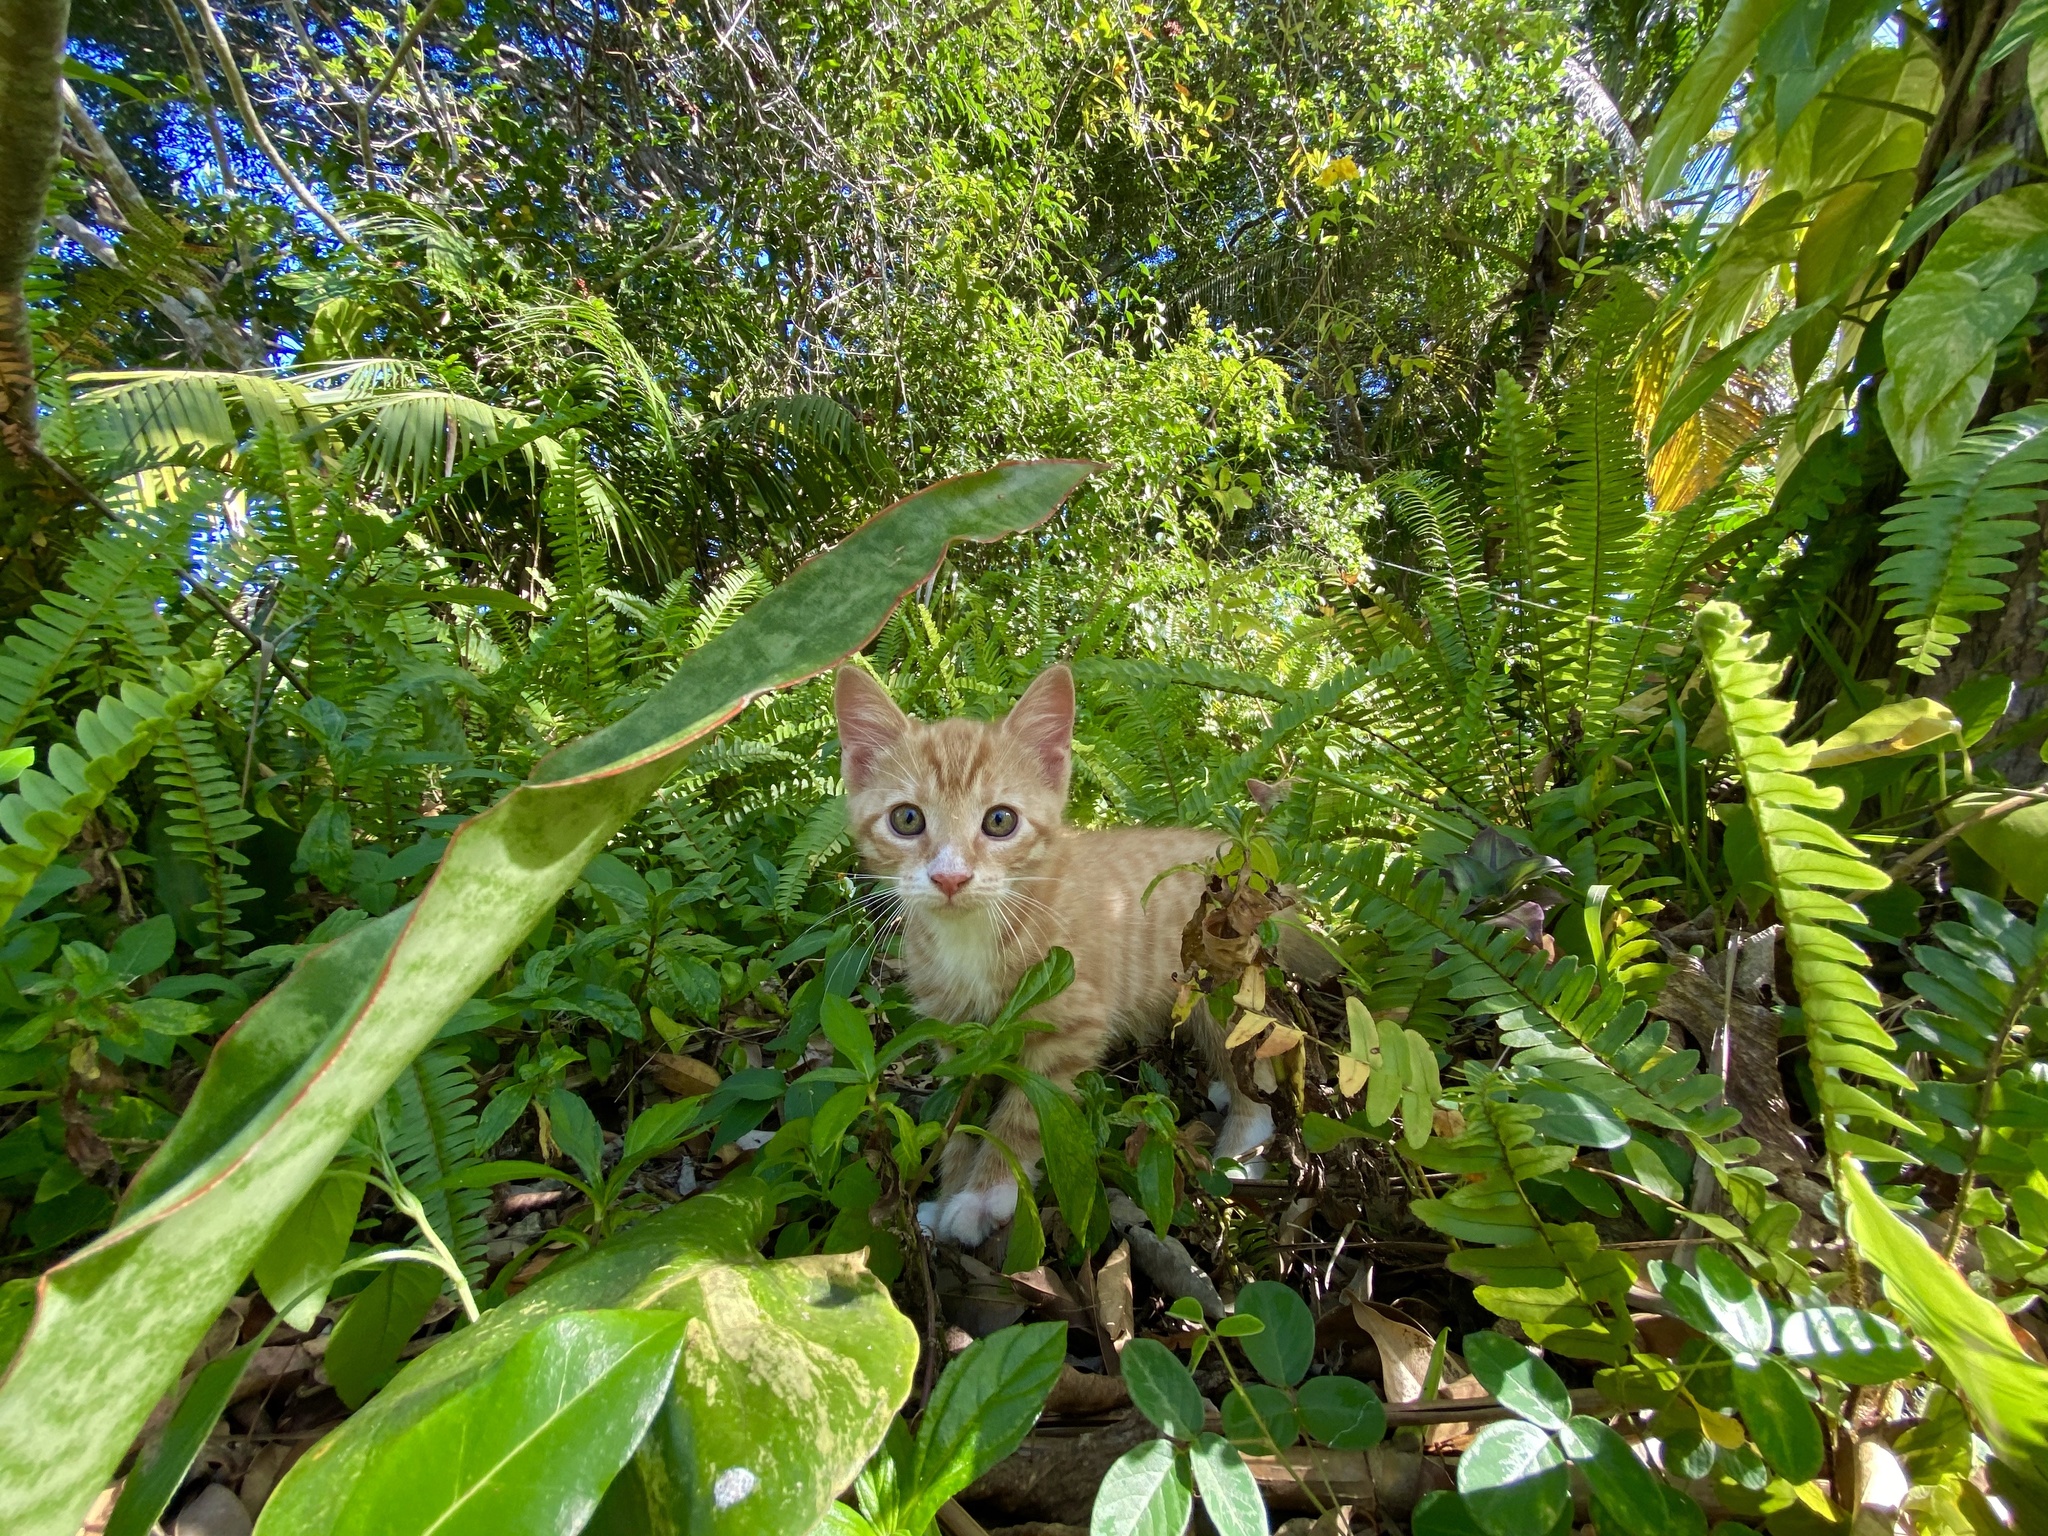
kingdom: Animalia
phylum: Chordata
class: Mammalia
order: Carnivora
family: Felidae
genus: Felis
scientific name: Felis catus
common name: Domestic cat
